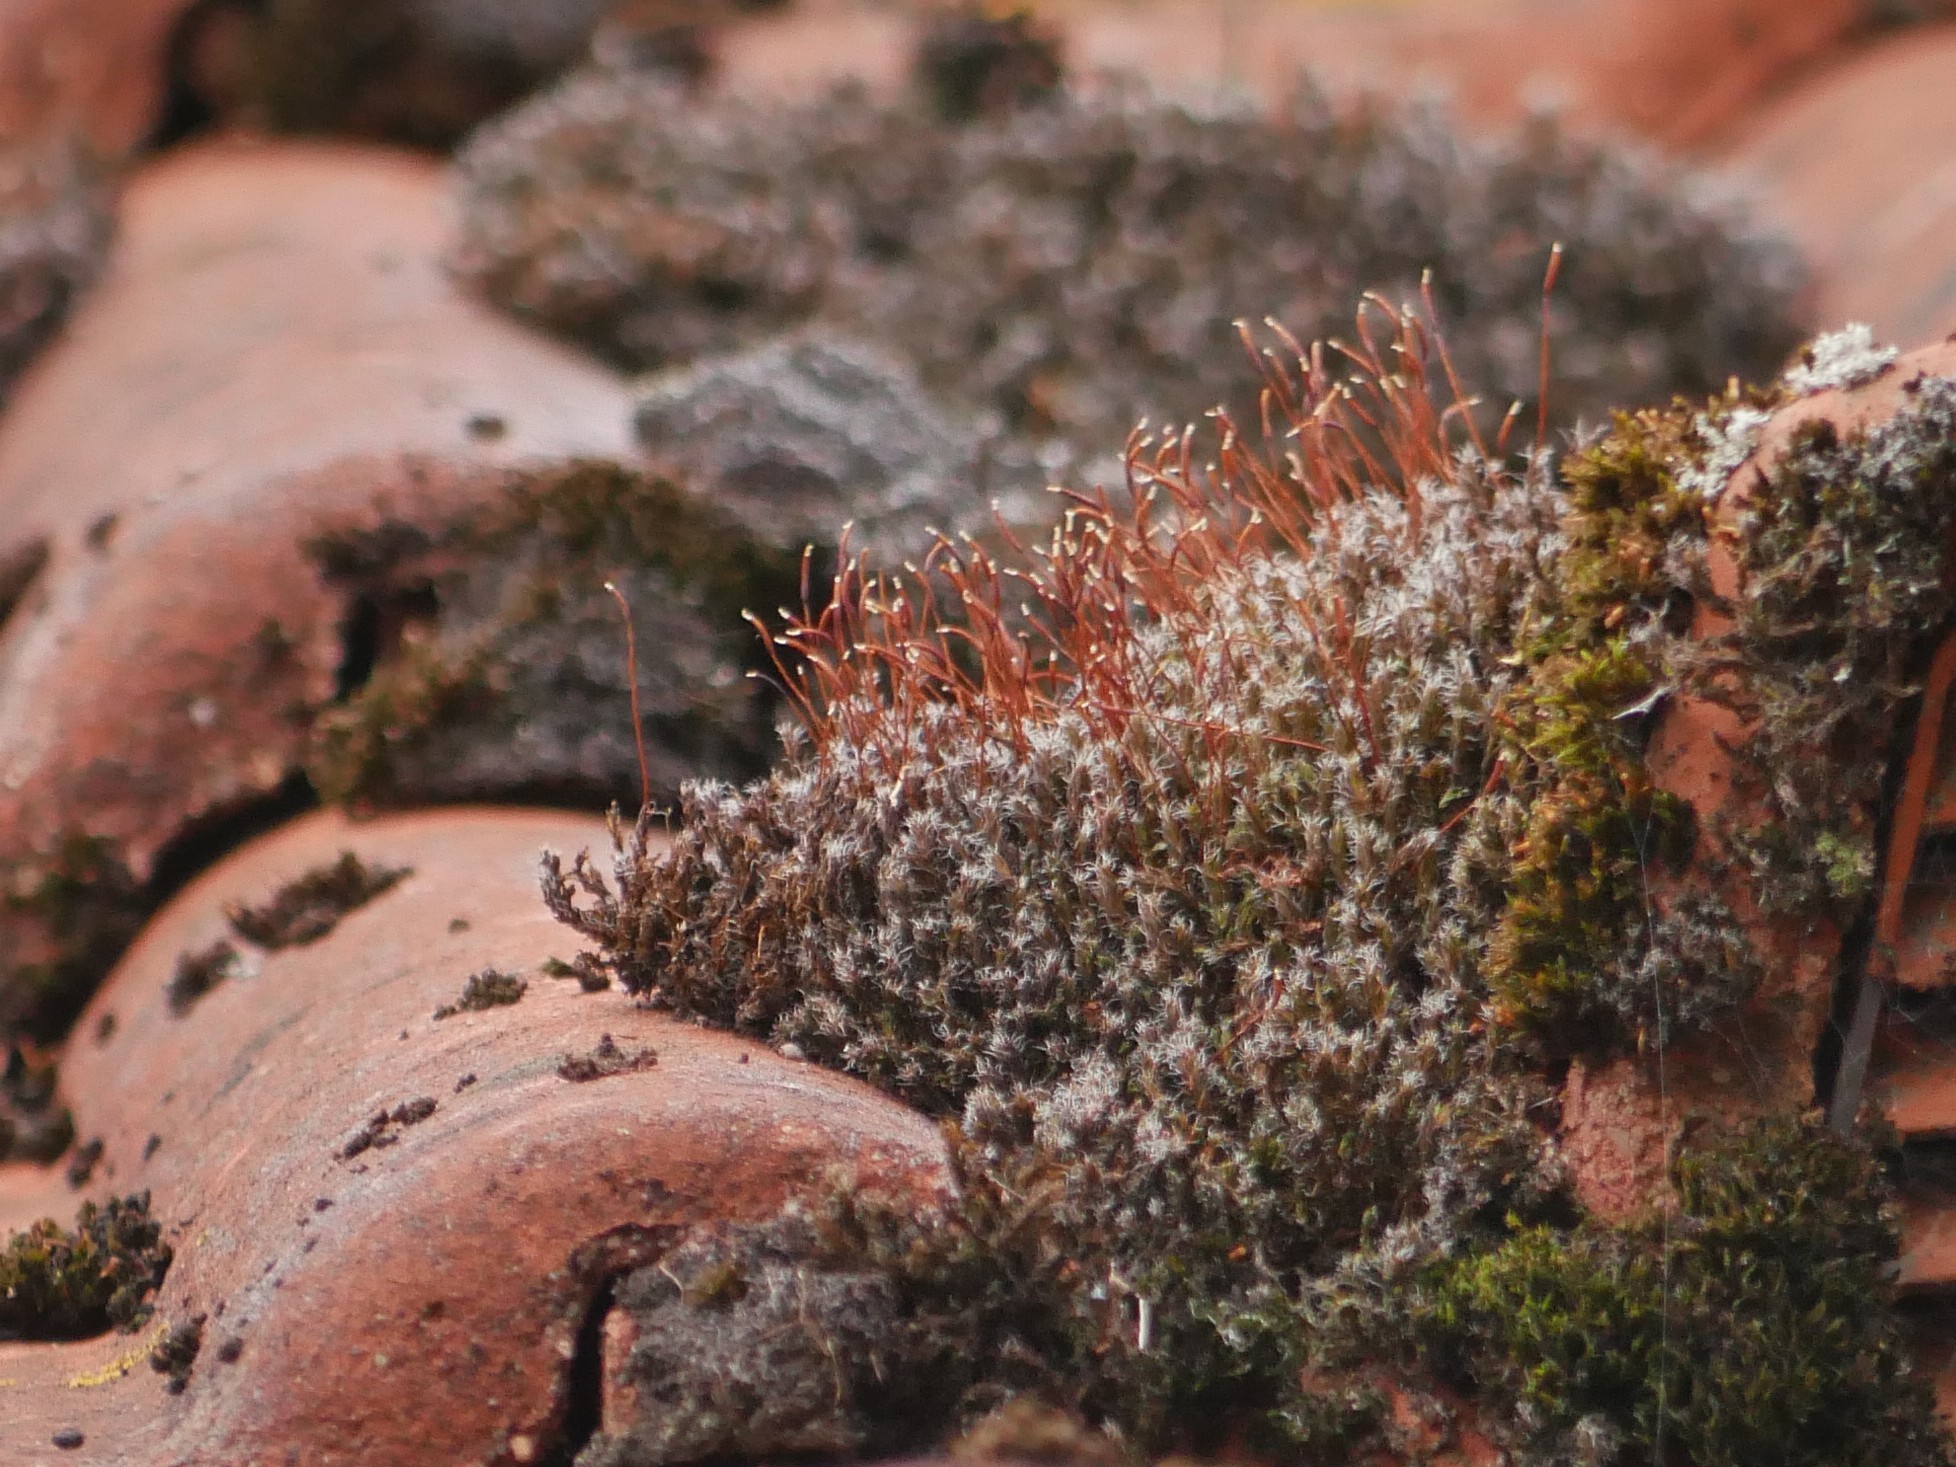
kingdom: Plantae
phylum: Bryophyta
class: Bryopsida
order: Pottiales
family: Pottiaceae
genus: Syntrichia
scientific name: Syntrichia ruralis
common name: Sidewalk screw moss
